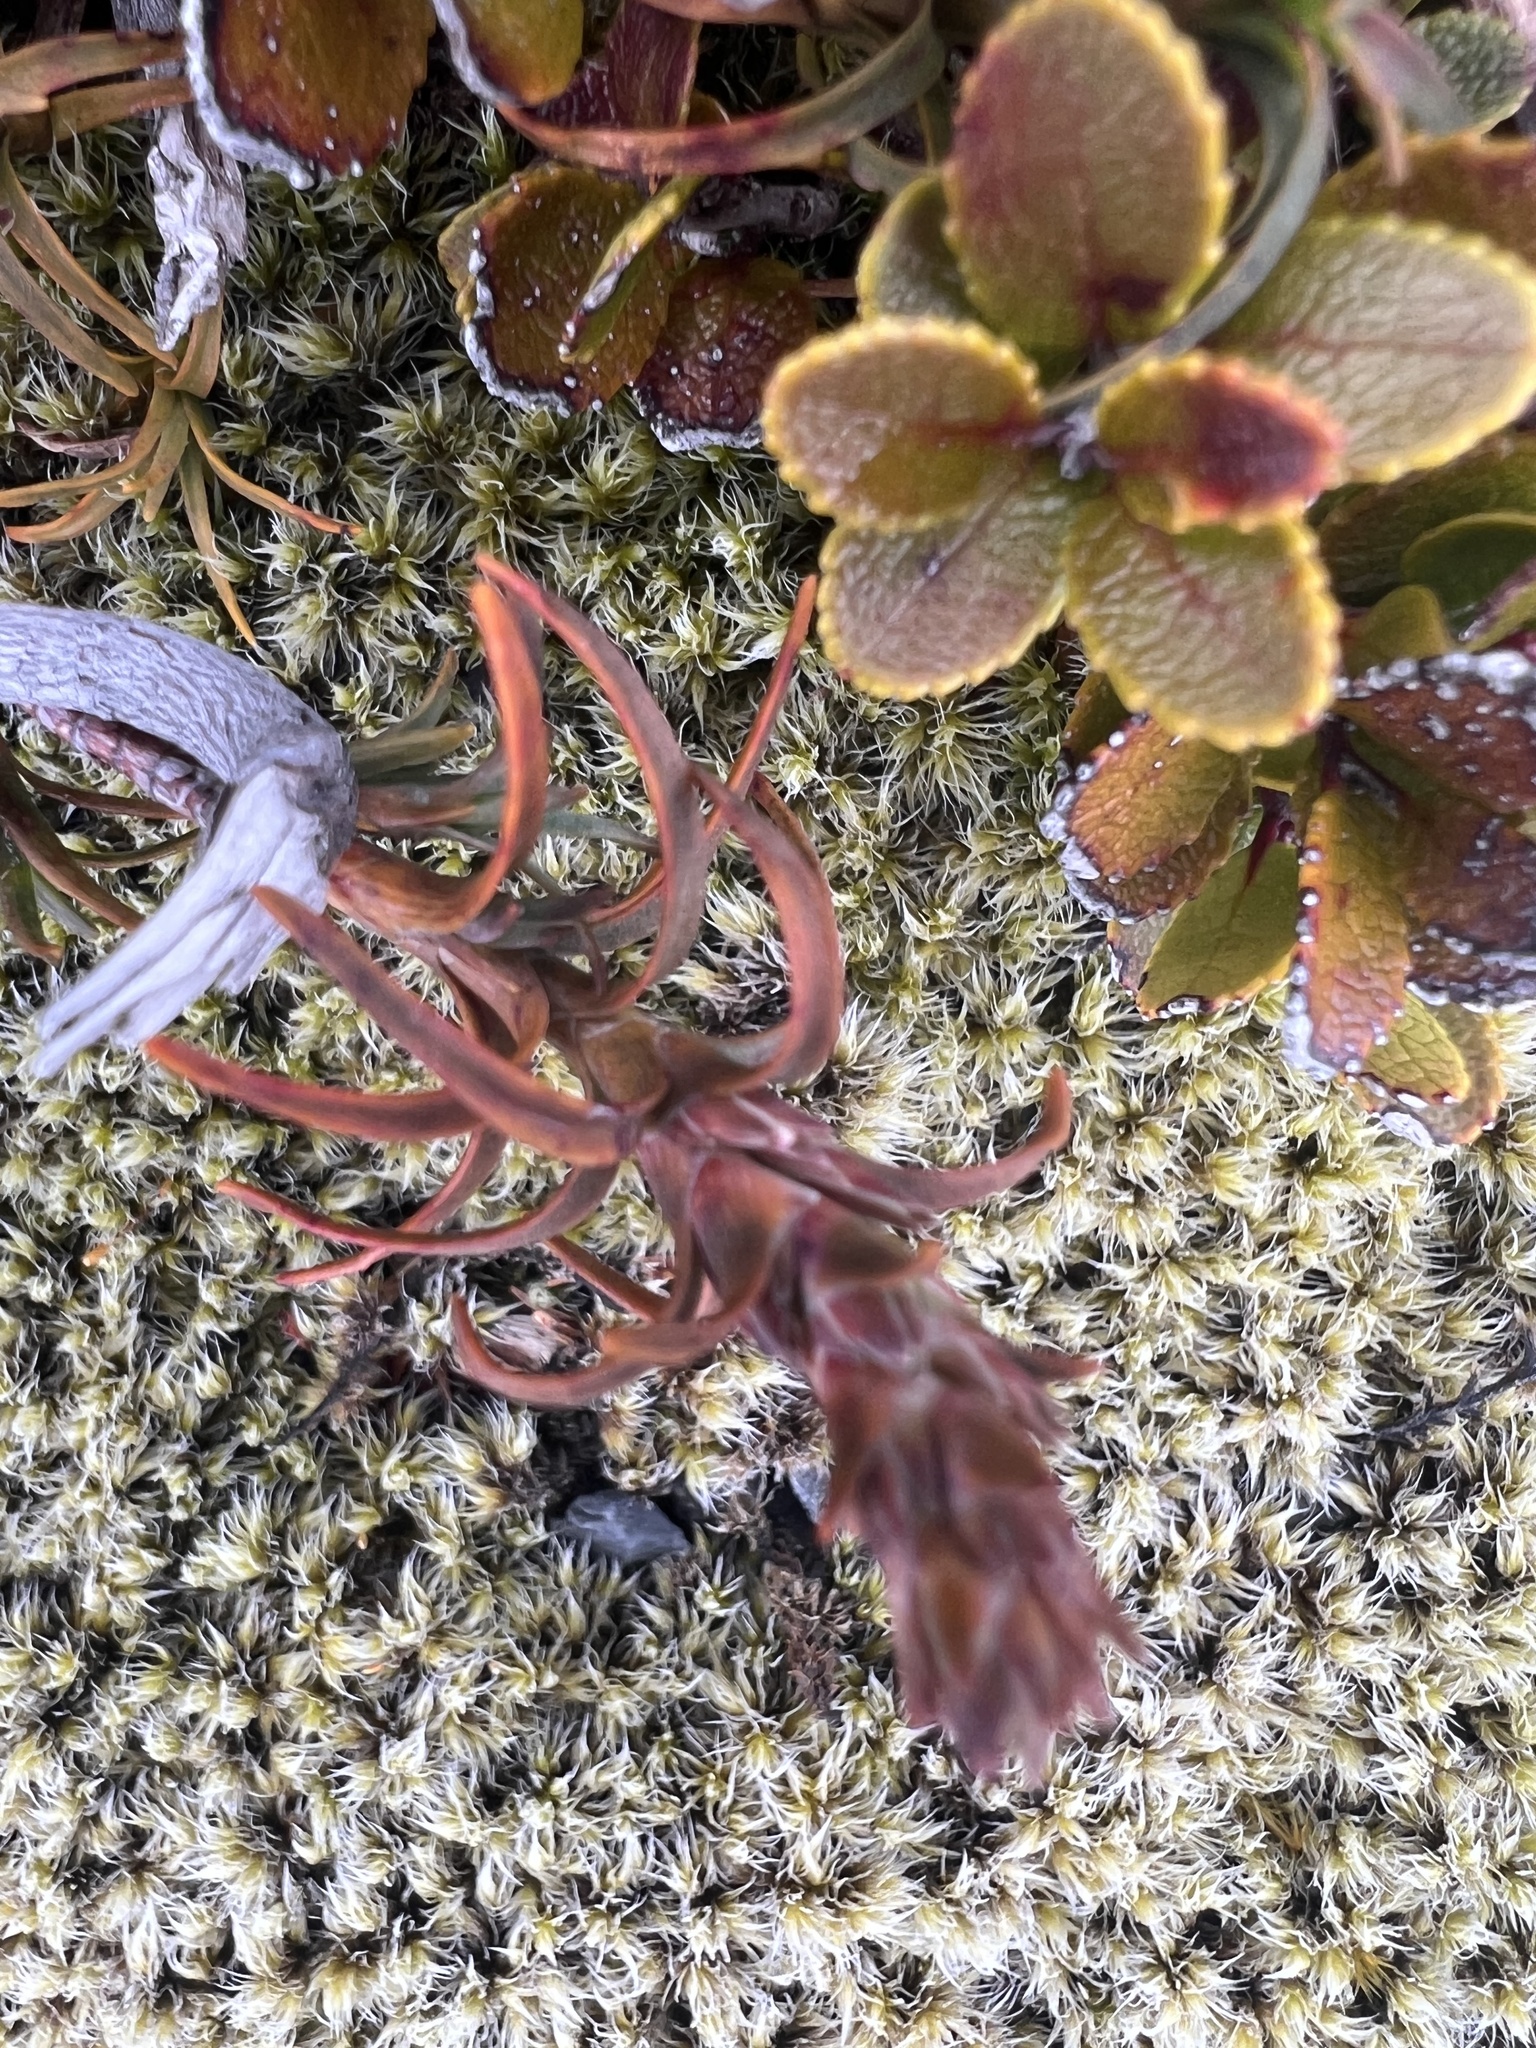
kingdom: Plantae
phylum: Tracheophyta
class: Magnoliopsida
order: Ericales
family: Ericaceae
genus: Gaultheria
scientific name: Gaultheria colensoi
